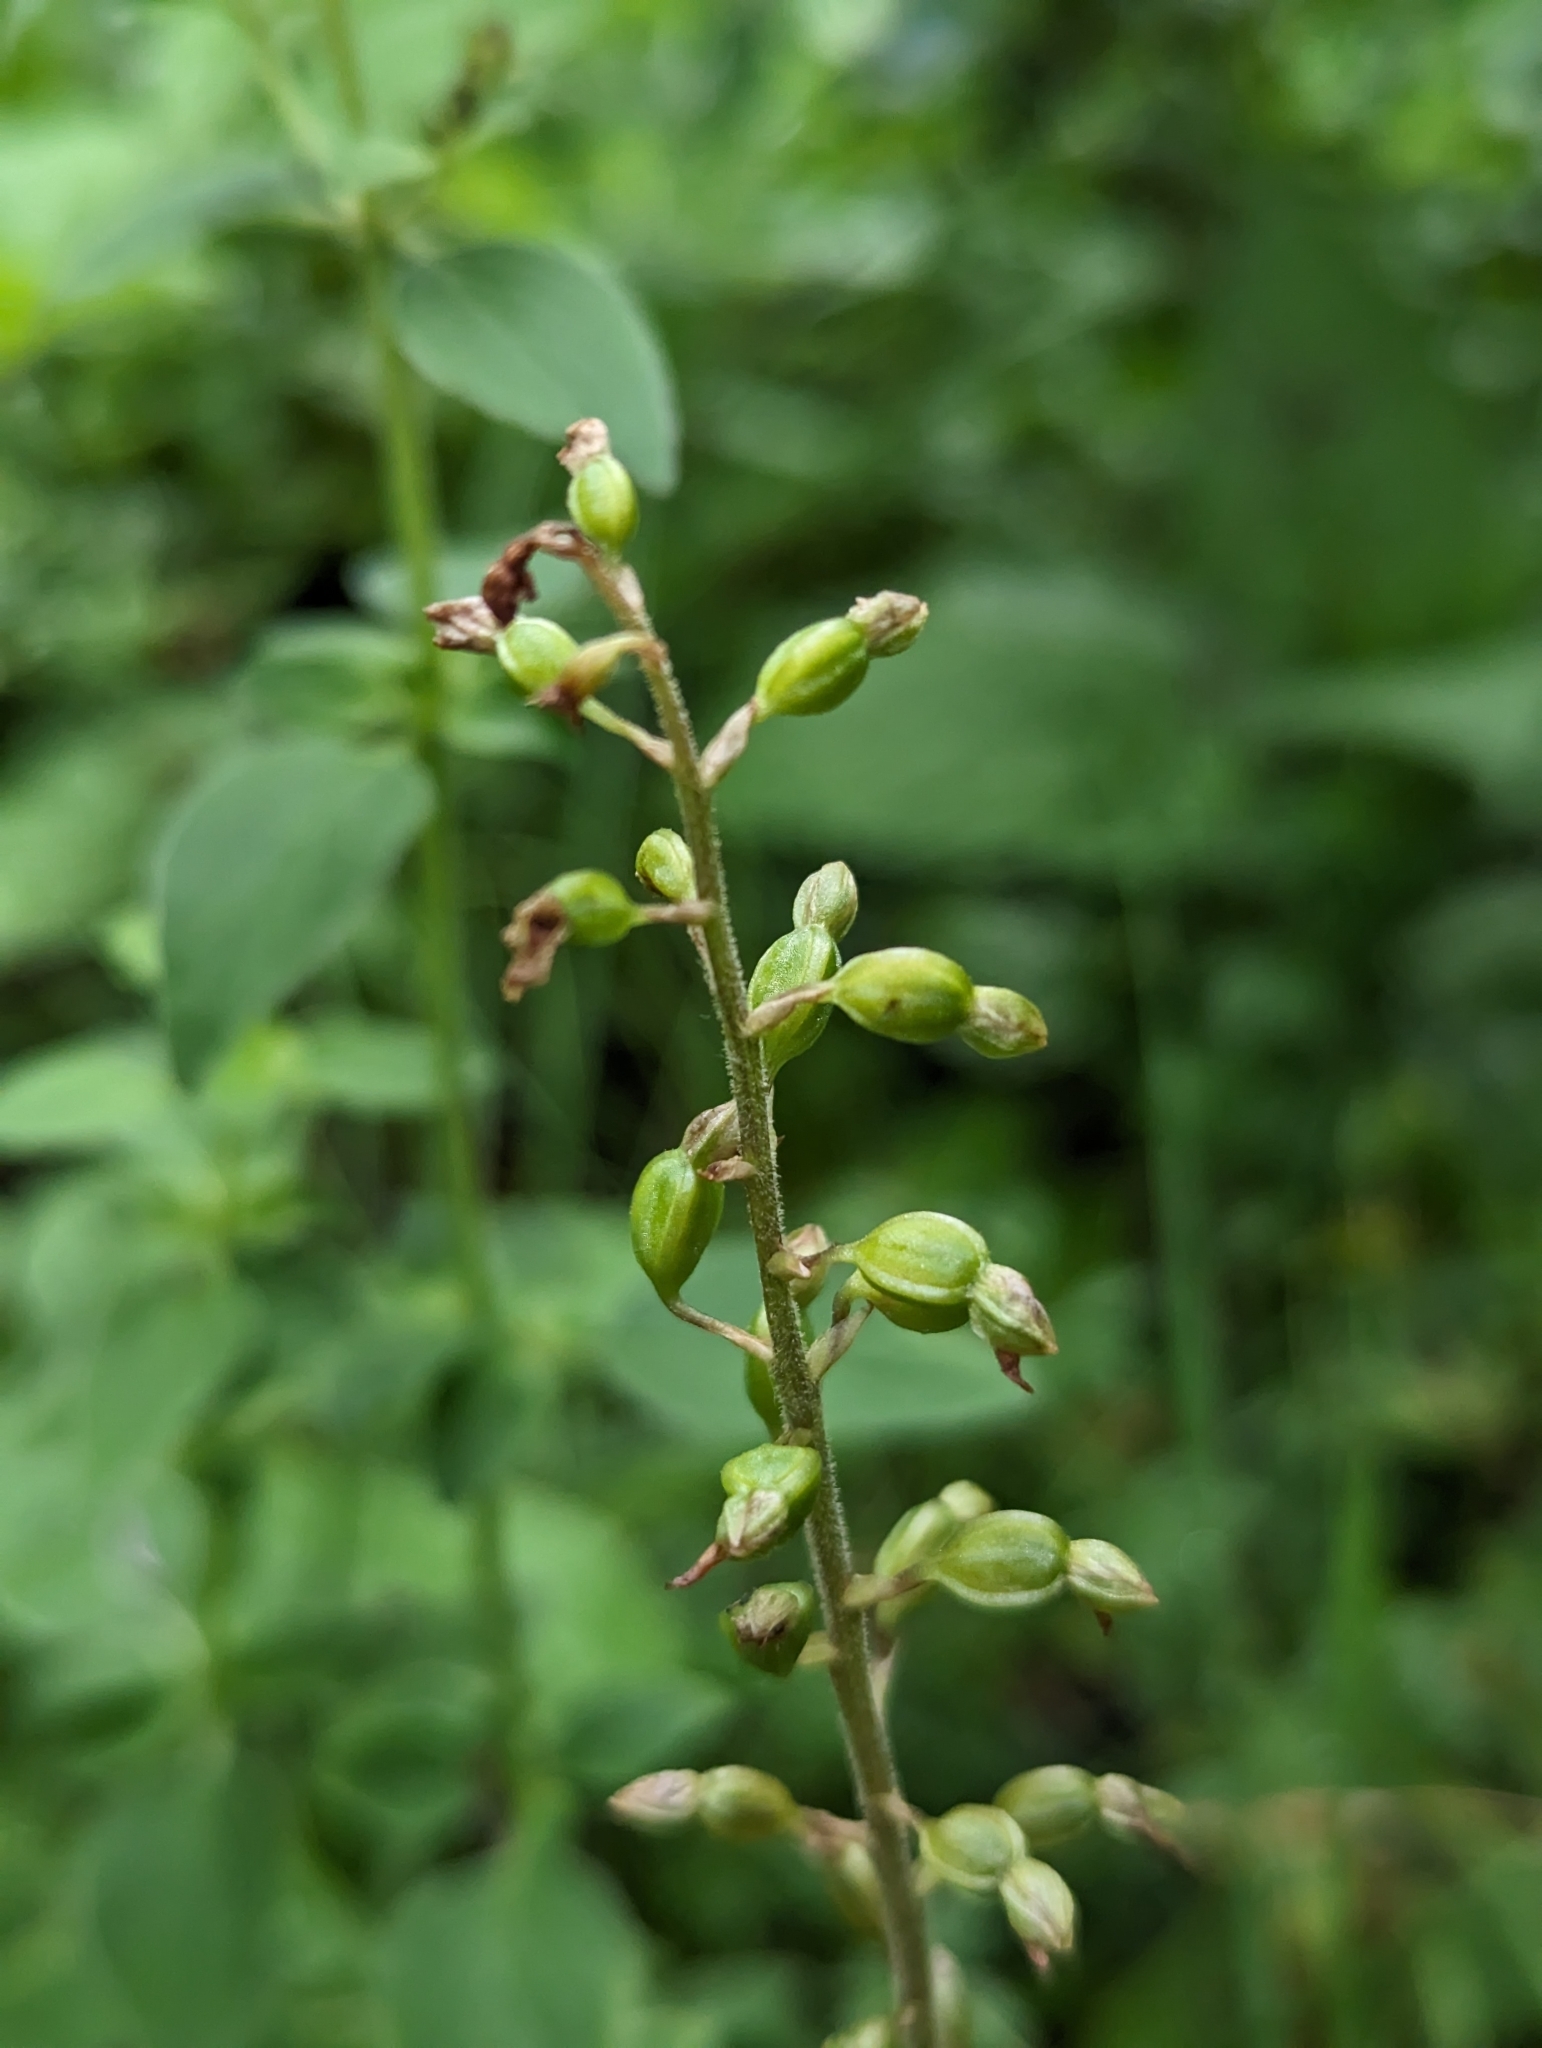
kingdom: Plantae
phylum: Tracheophyta
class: Liliopsida
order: Asparagales
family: Orchidaceae
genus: Neottia
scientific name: Neottia ovata
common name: Common twayblade
